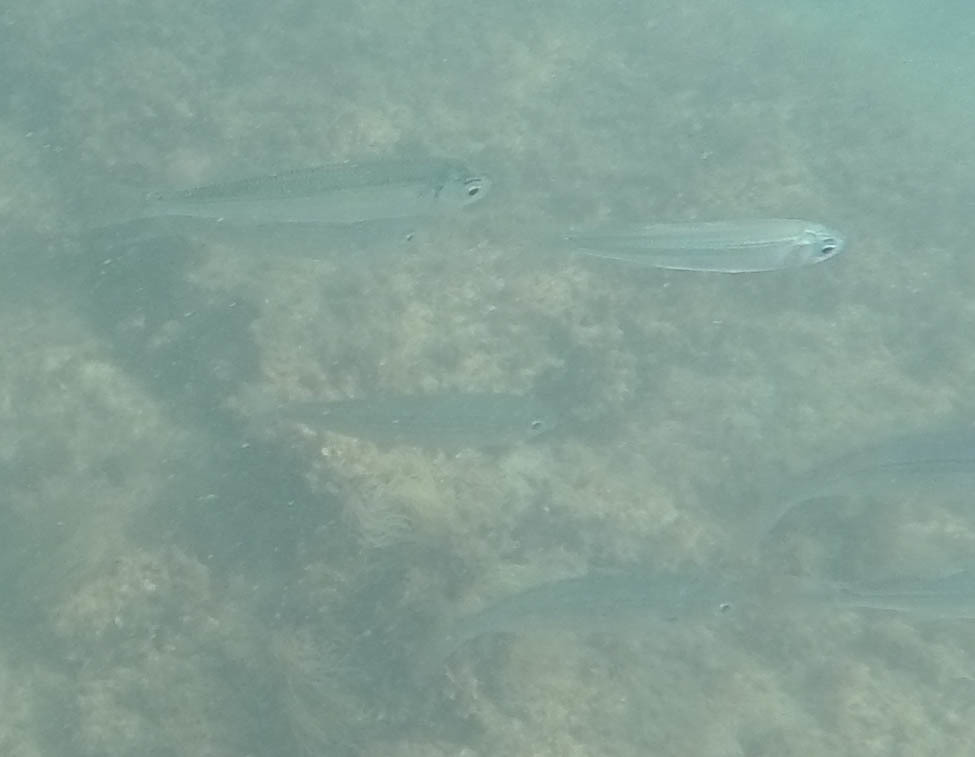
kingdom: Animalia
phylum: Chordata
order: Atheriniformes
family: Atherinidae
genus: Atherina
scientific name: Atherina
